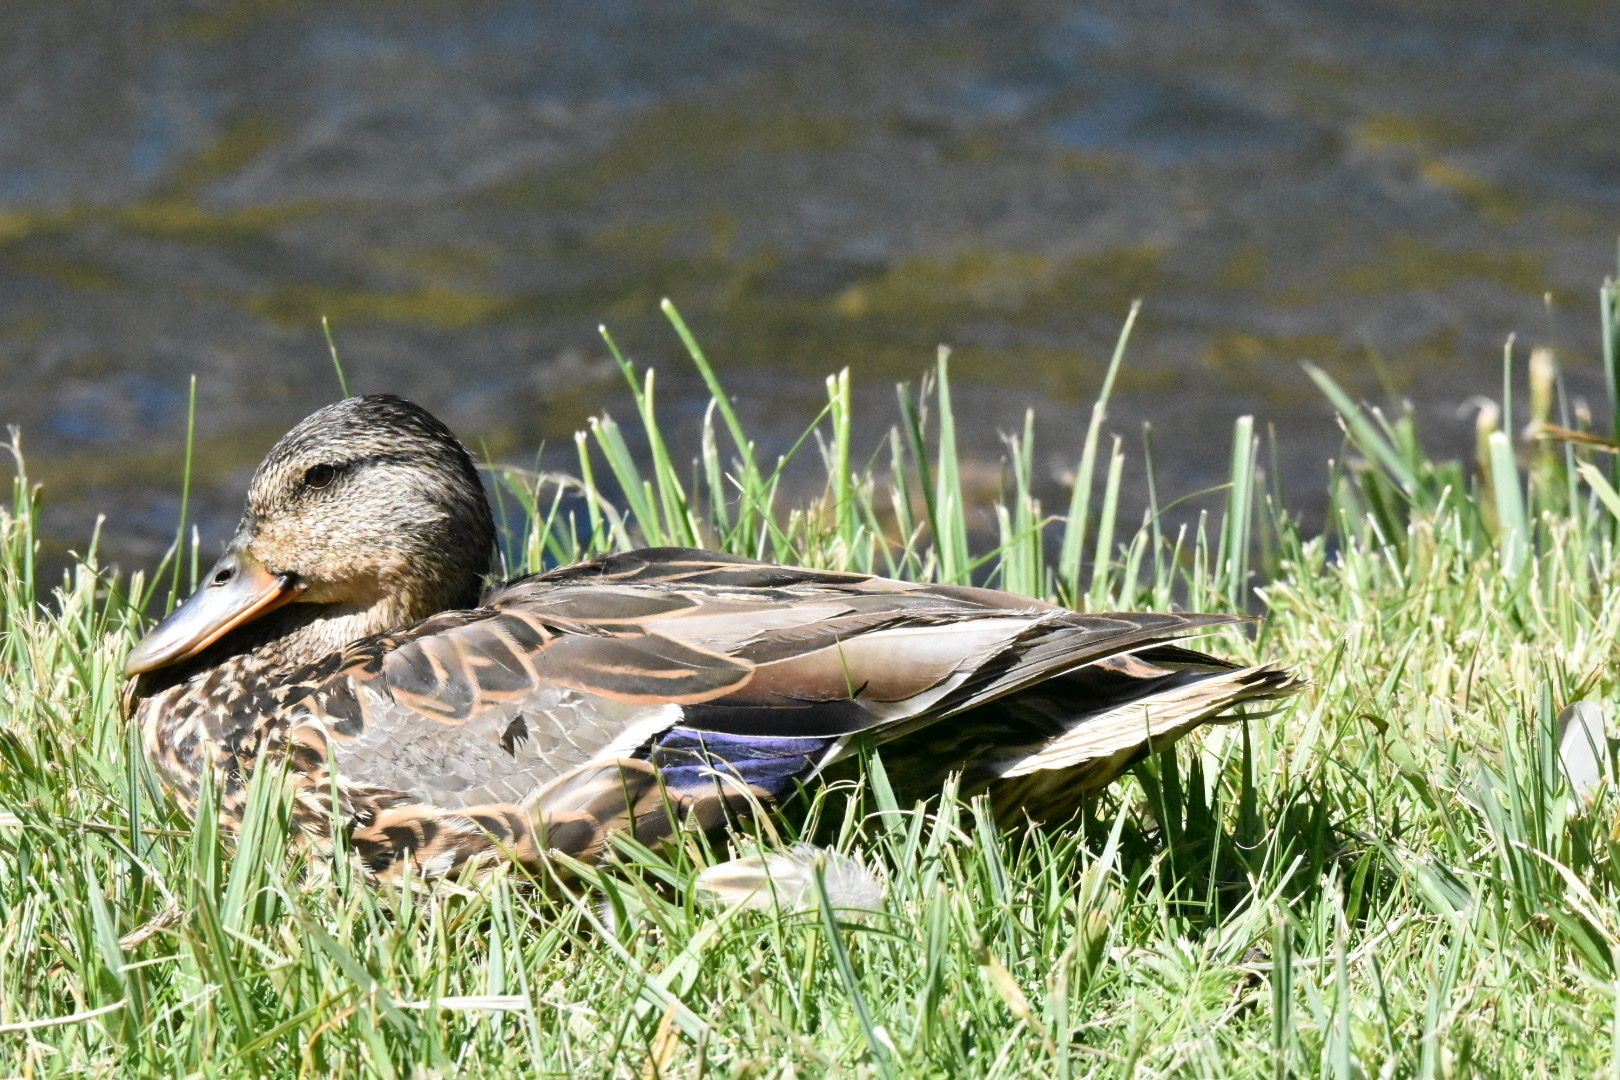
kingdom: Animalia
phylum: Chordata
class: Aves
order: Anseriformes
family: Anatidae
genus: Anas
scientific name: Anas platyrhynchos
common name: Mallard
